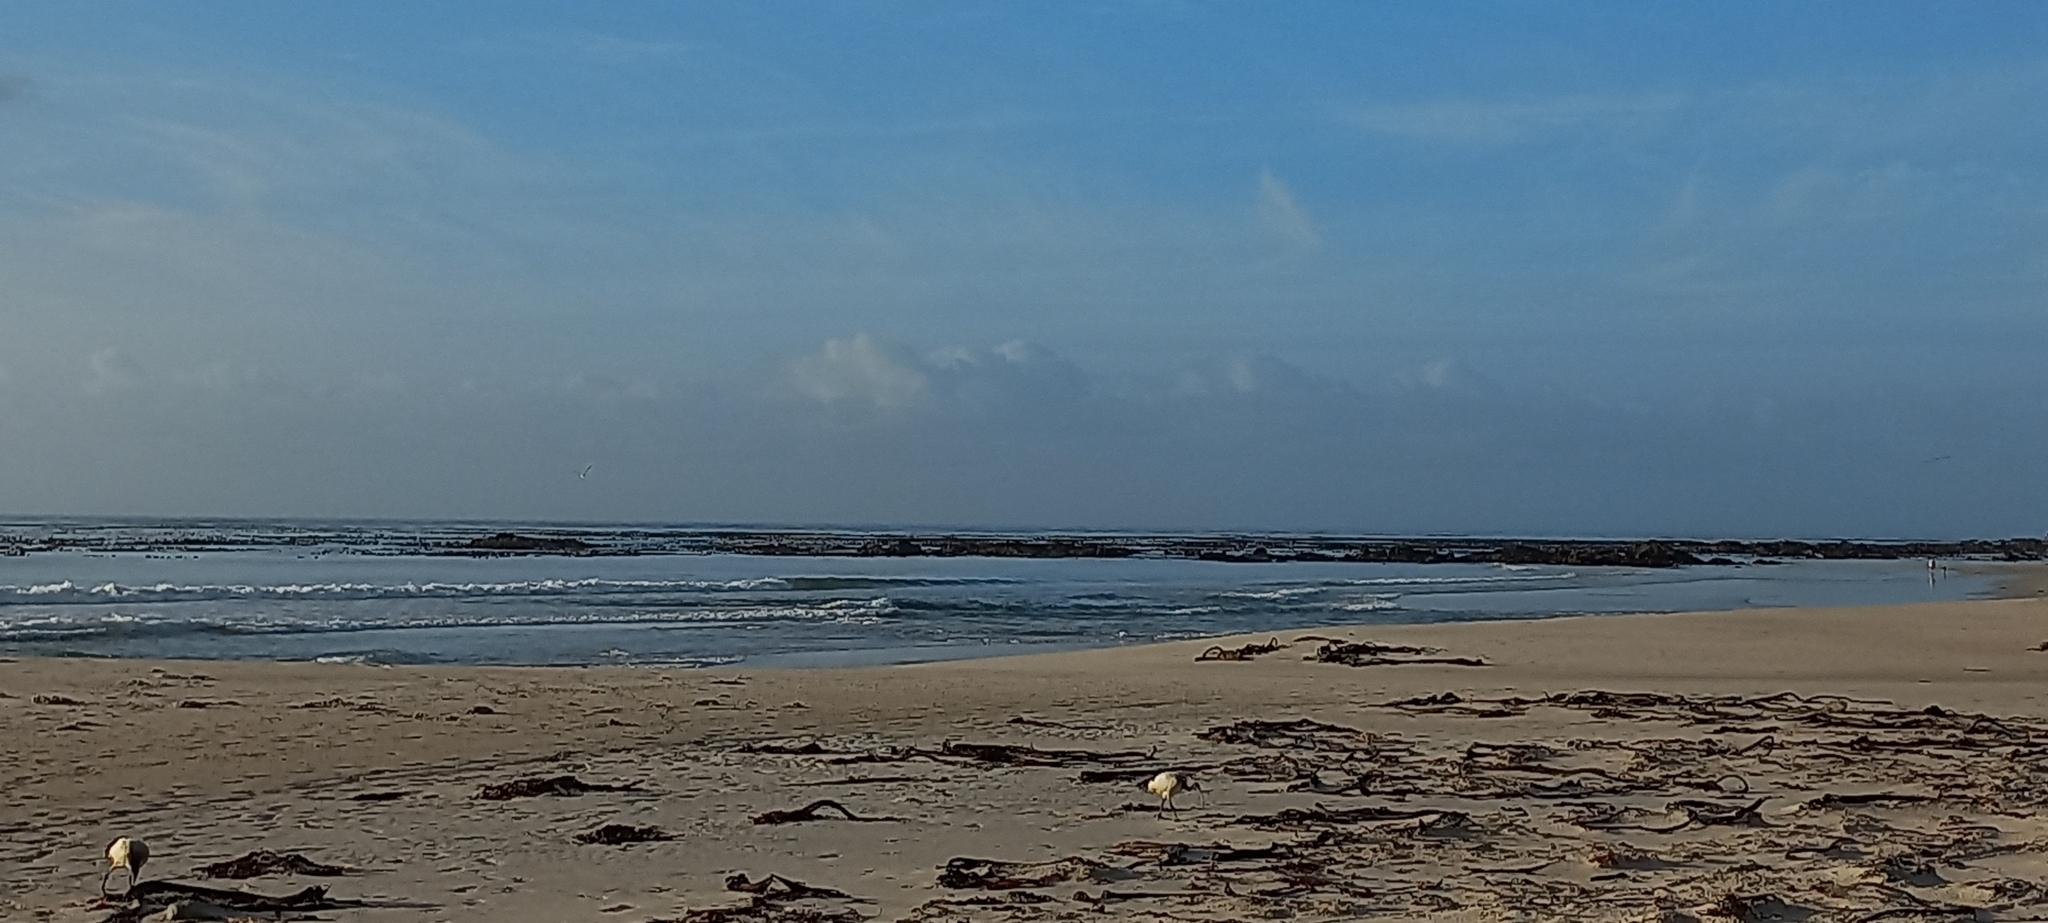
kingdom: Animalia
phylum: Chordata
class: Aves
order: Pelecaniformes
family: Threskiornithidae
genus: Threskiornis
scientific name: Threskiornis aethiopicus
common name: Sacred ibis
